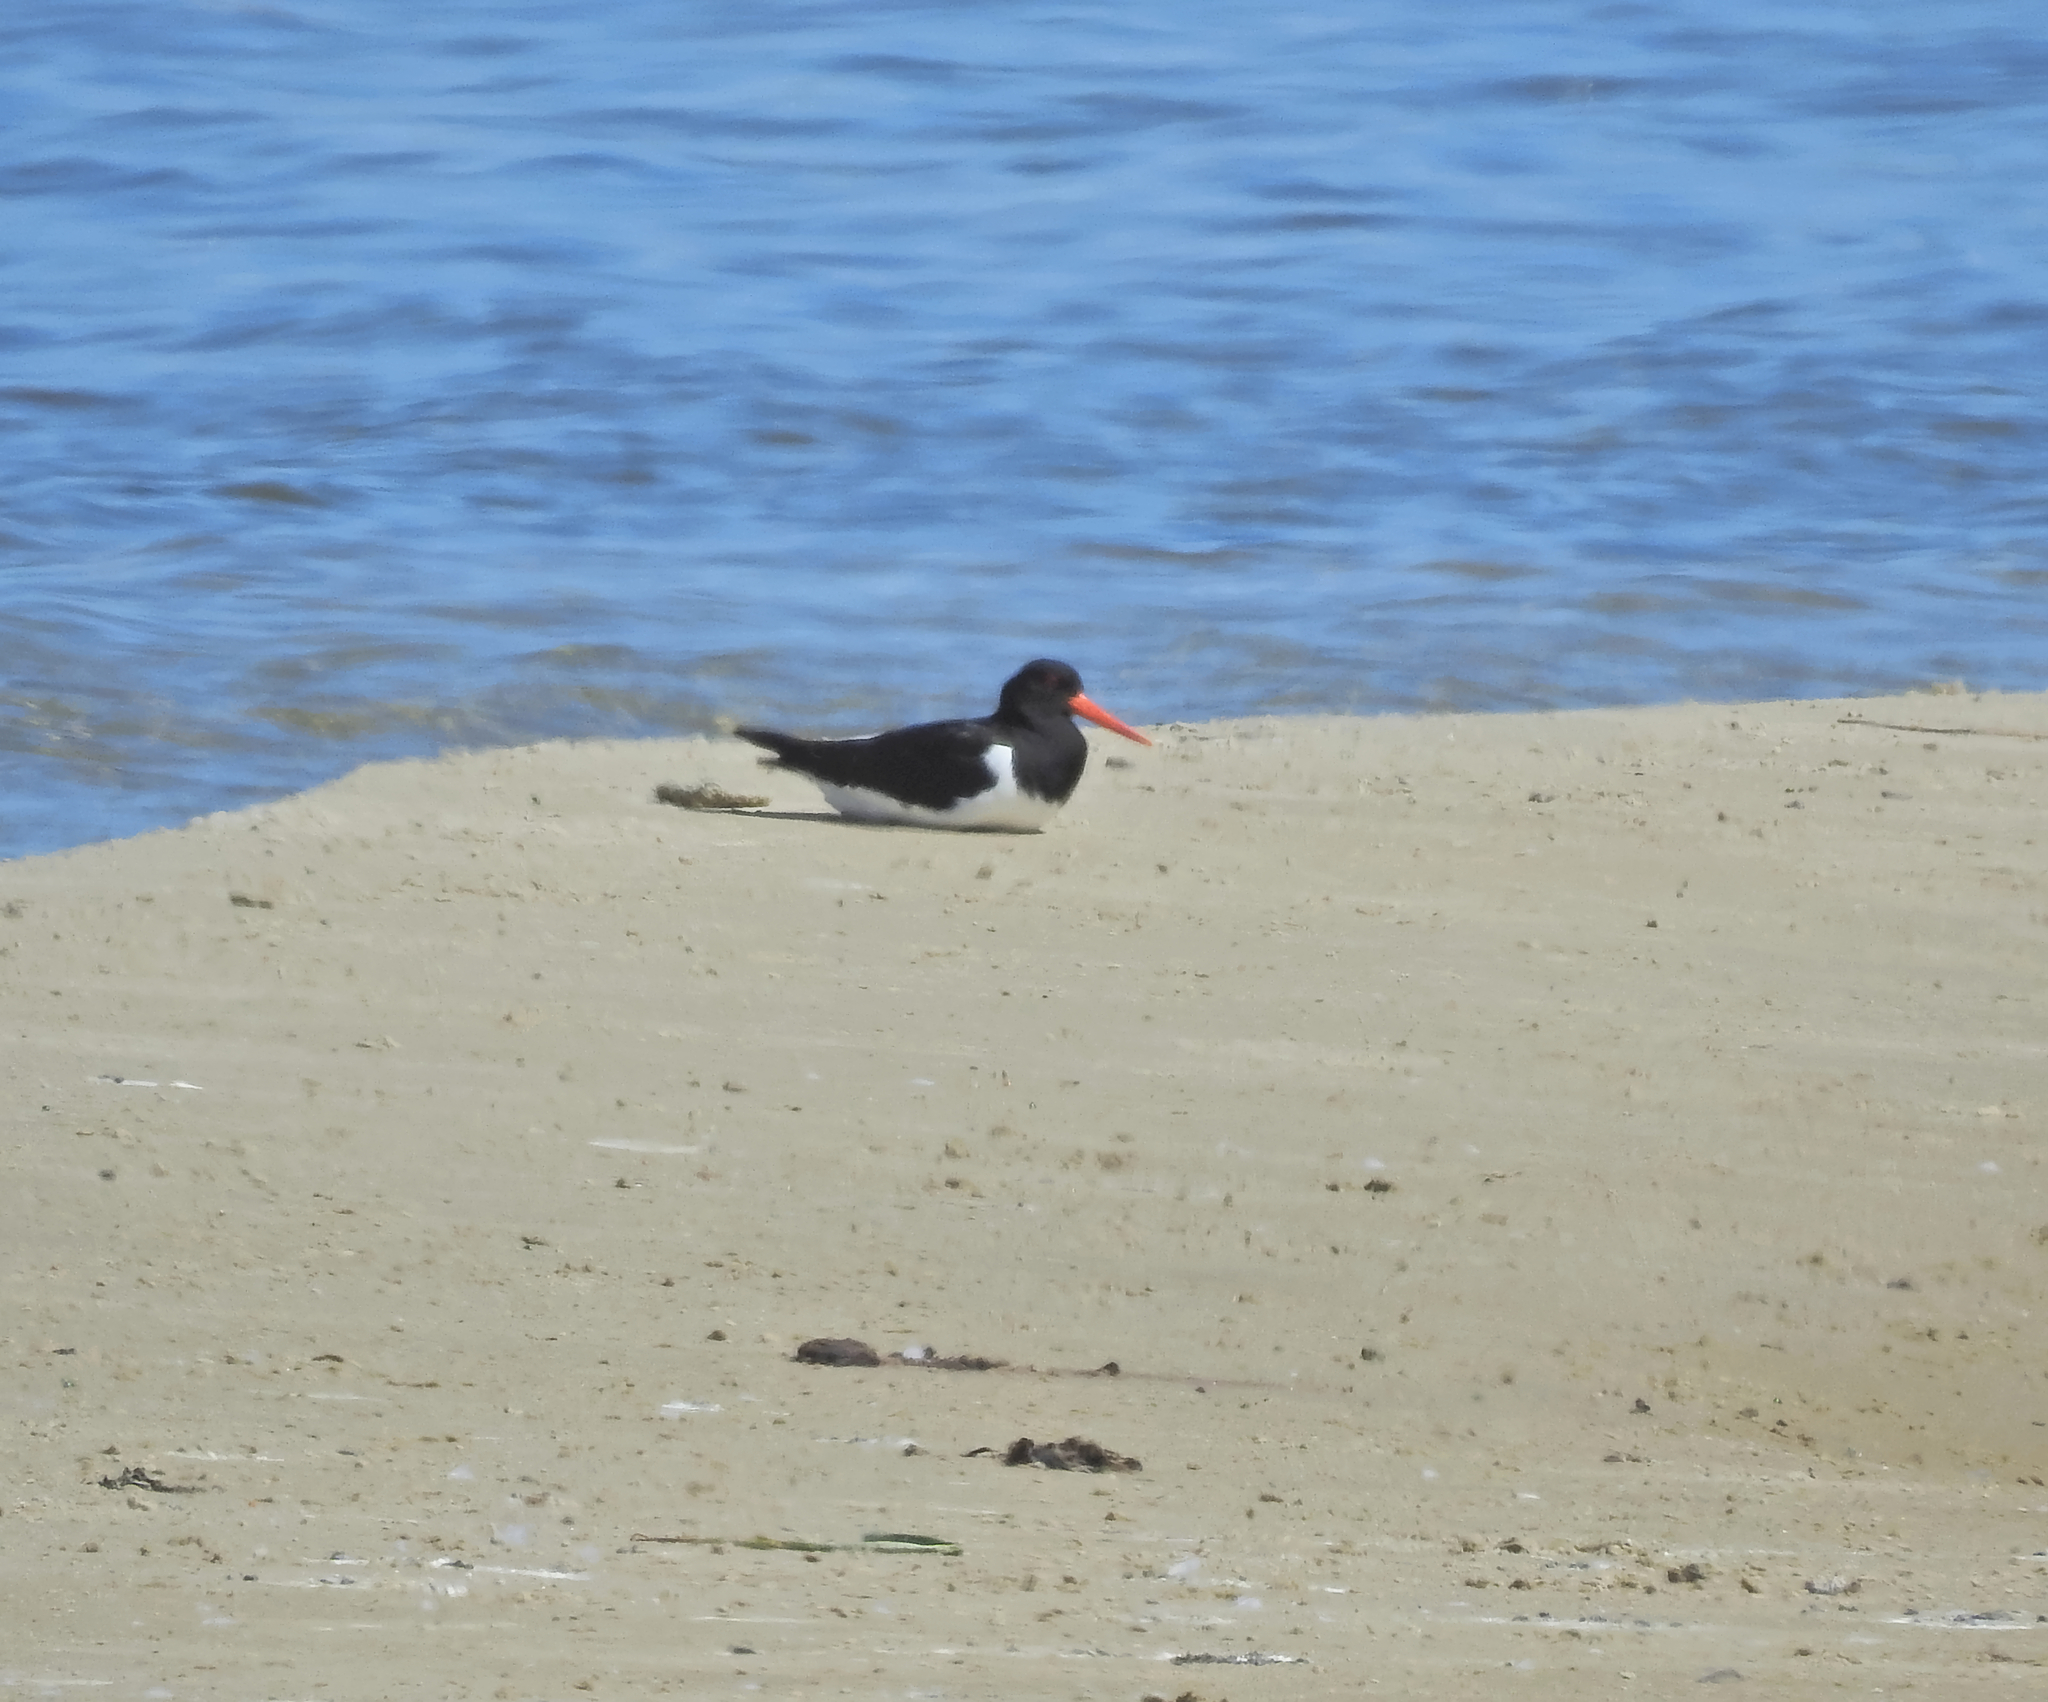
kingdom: Animalia
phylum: Chordata
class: Aves
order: Charadriiformes
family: Haematopodidae
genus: Haematopus
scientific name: Haematopus ostralegus
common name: Eurasian oystercatcher
